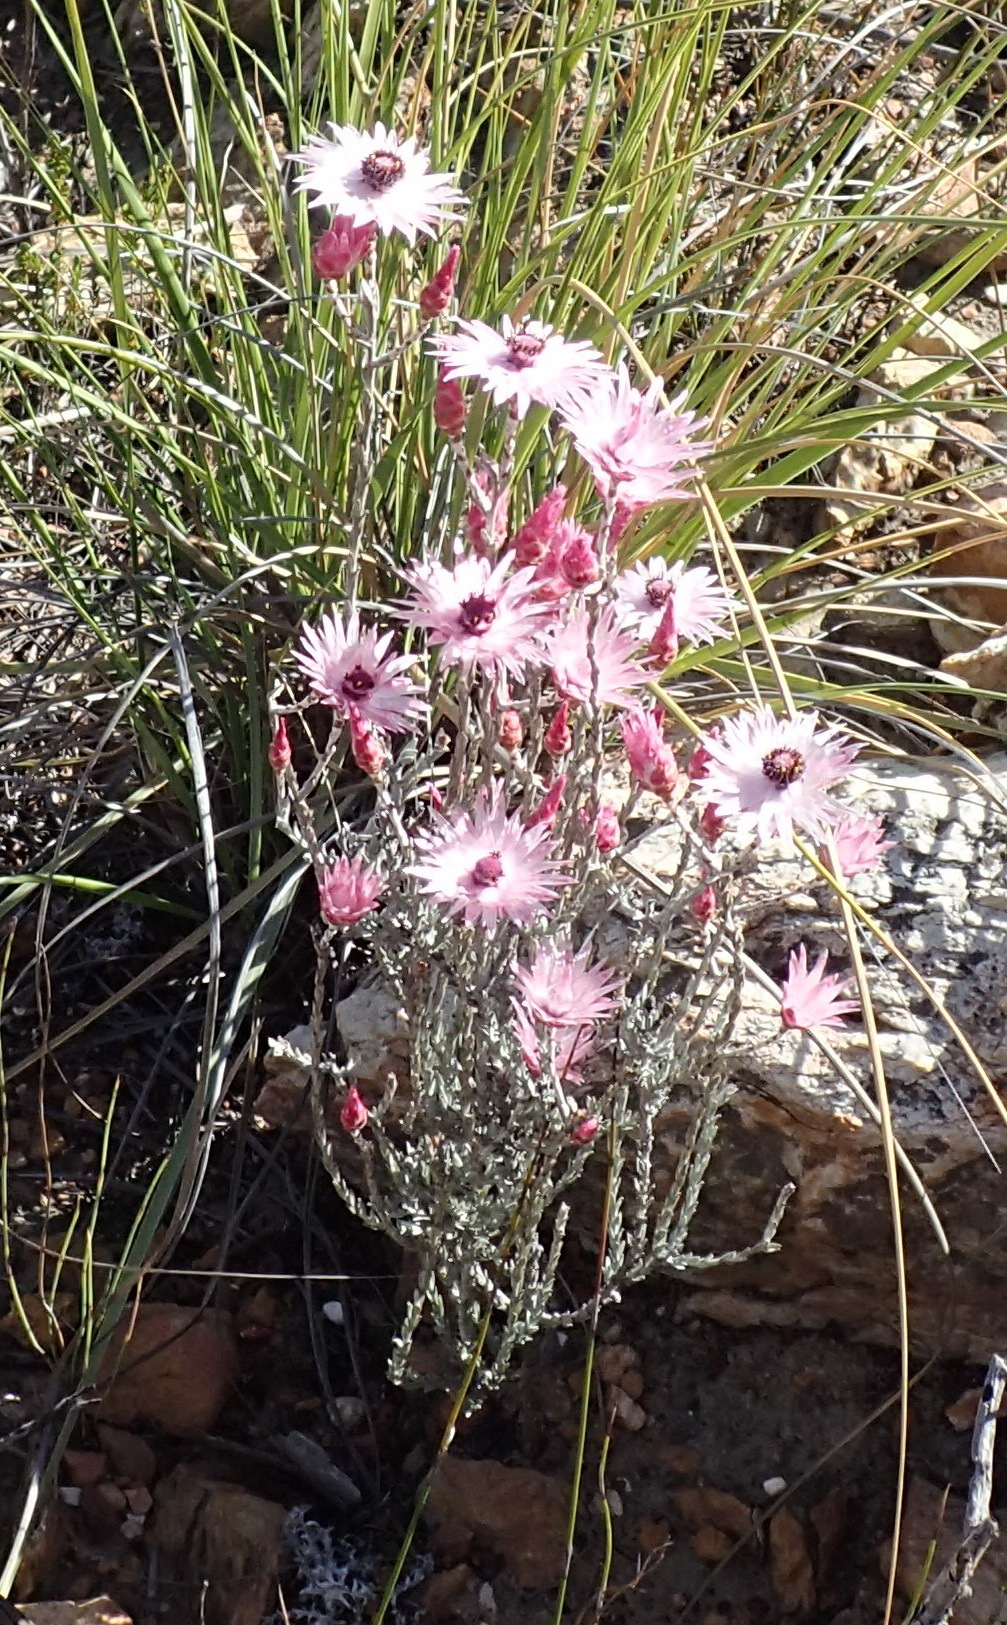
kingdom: Plantae
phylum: Tracheophyta
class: Magnoliopsida
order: Asterales
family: Asteraceae
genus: Syncarpha
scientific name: Syncarpha canescens
